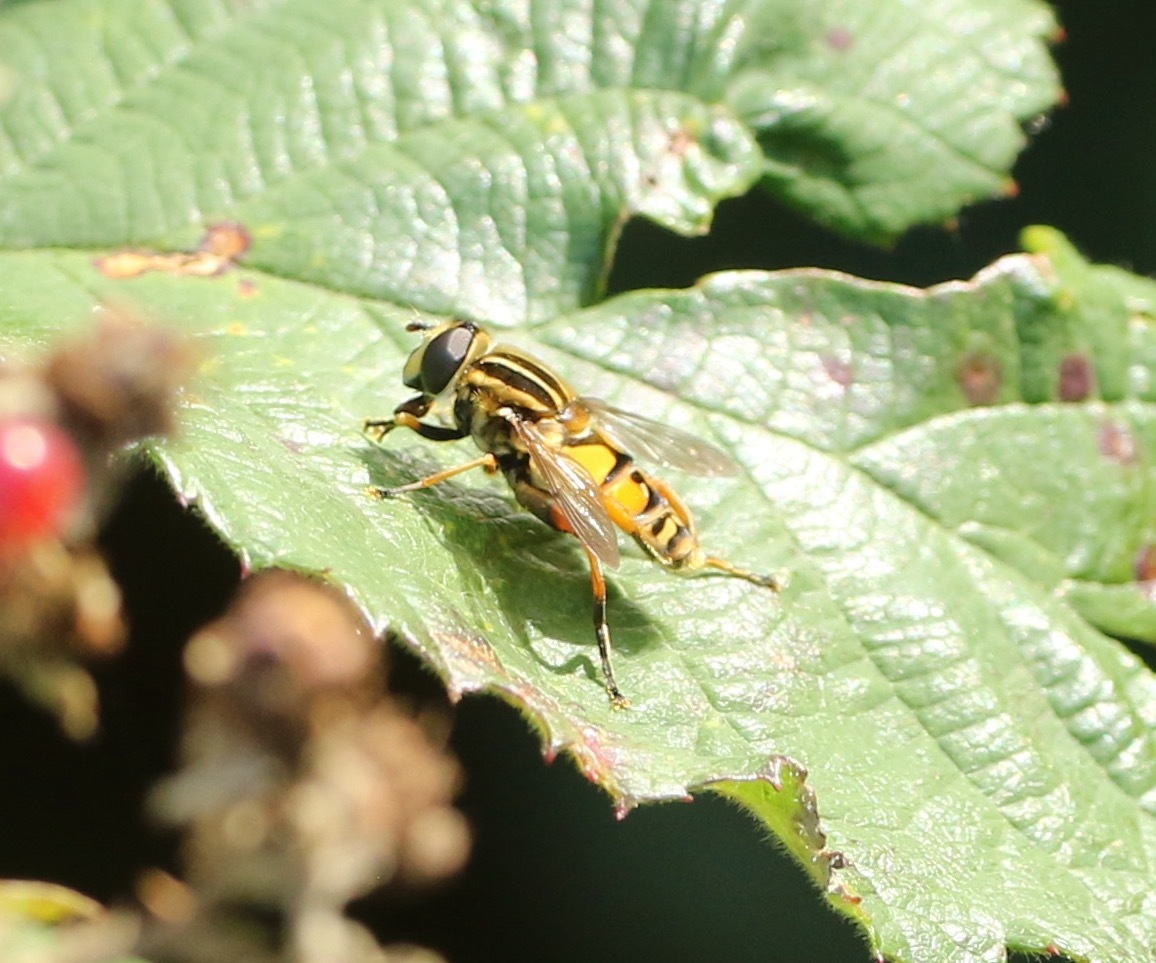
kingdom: Animalia
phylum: Arthropoda
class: Insecta
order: Diptera
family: Syrphidae
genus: Helophilus
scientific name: Helophilus pendulus
